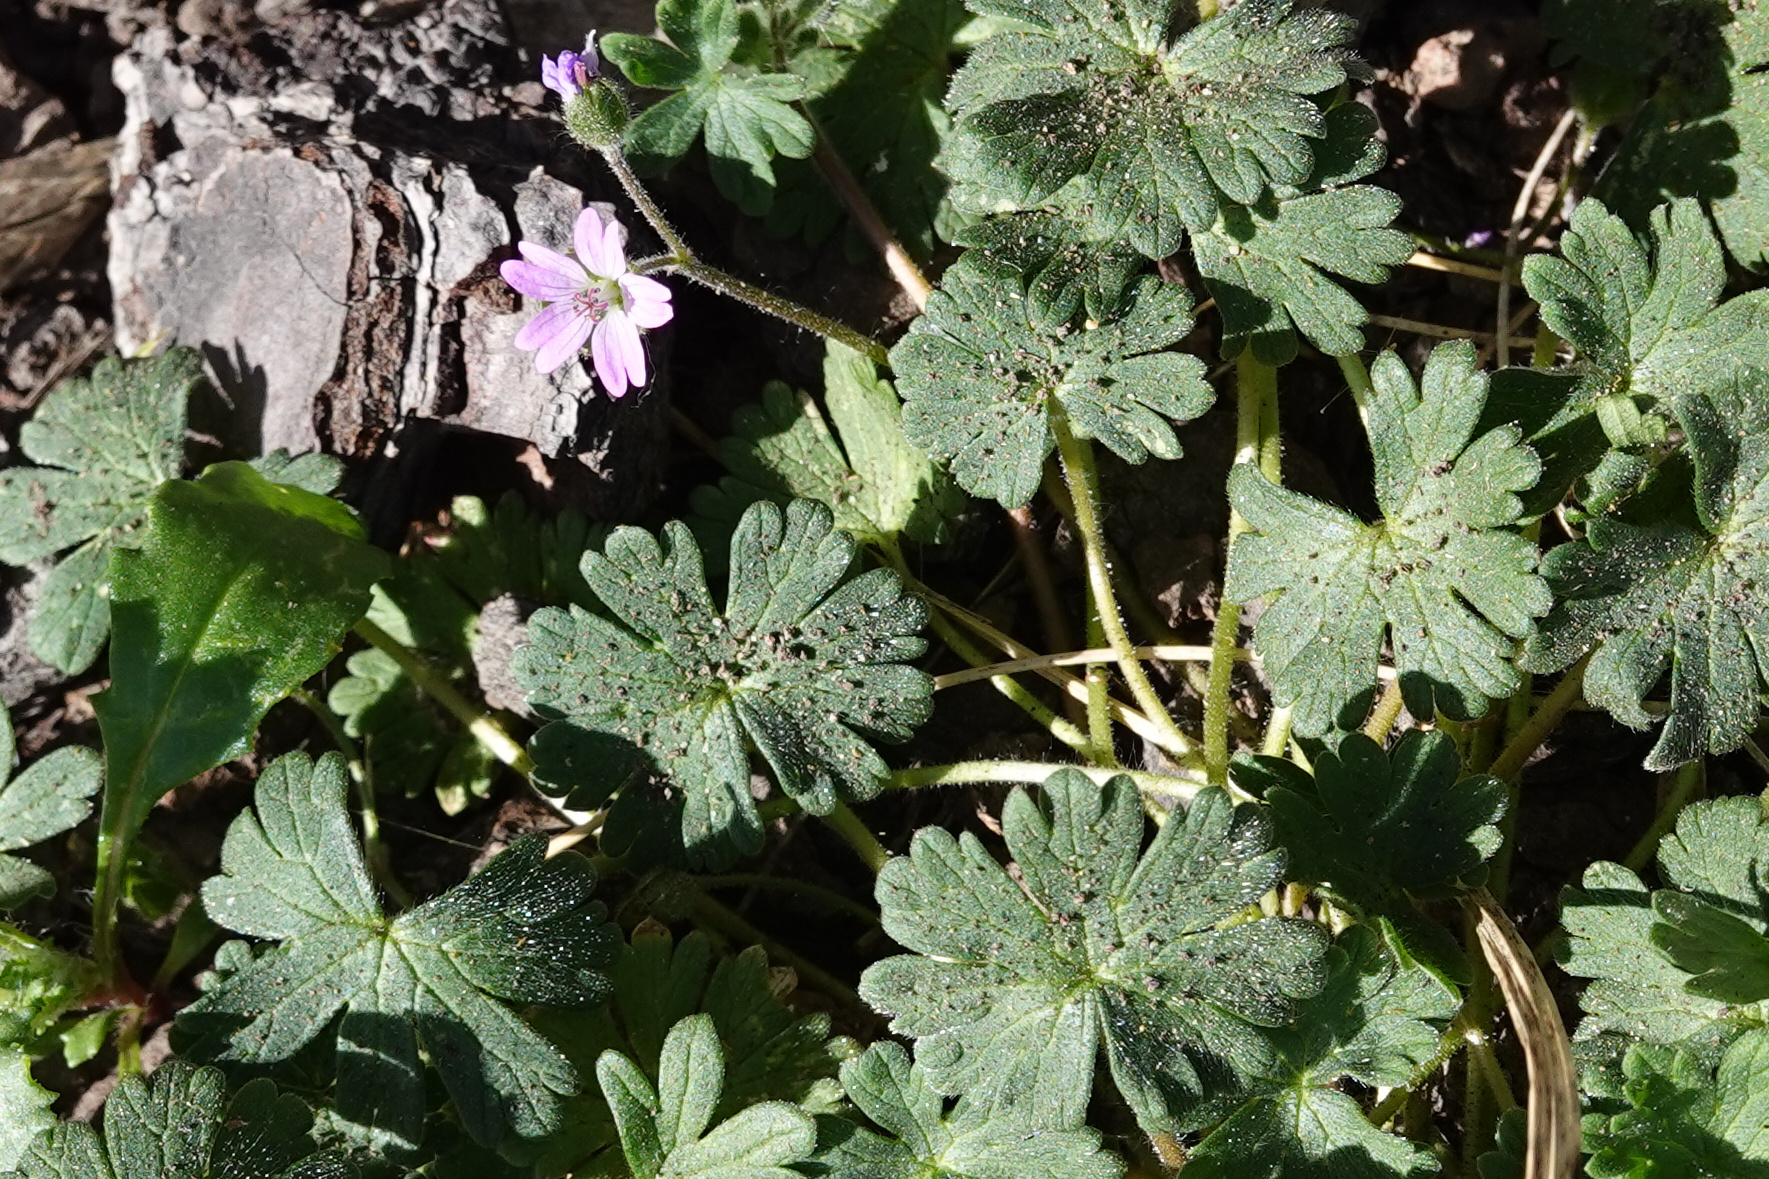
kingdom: Plantae
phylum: Tracheophyta
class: Magnoliopsida
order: Geraniales
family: Geraniaceae
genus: Geranium
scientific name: Geranium molle
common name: Dove's-foot crane's-bill
